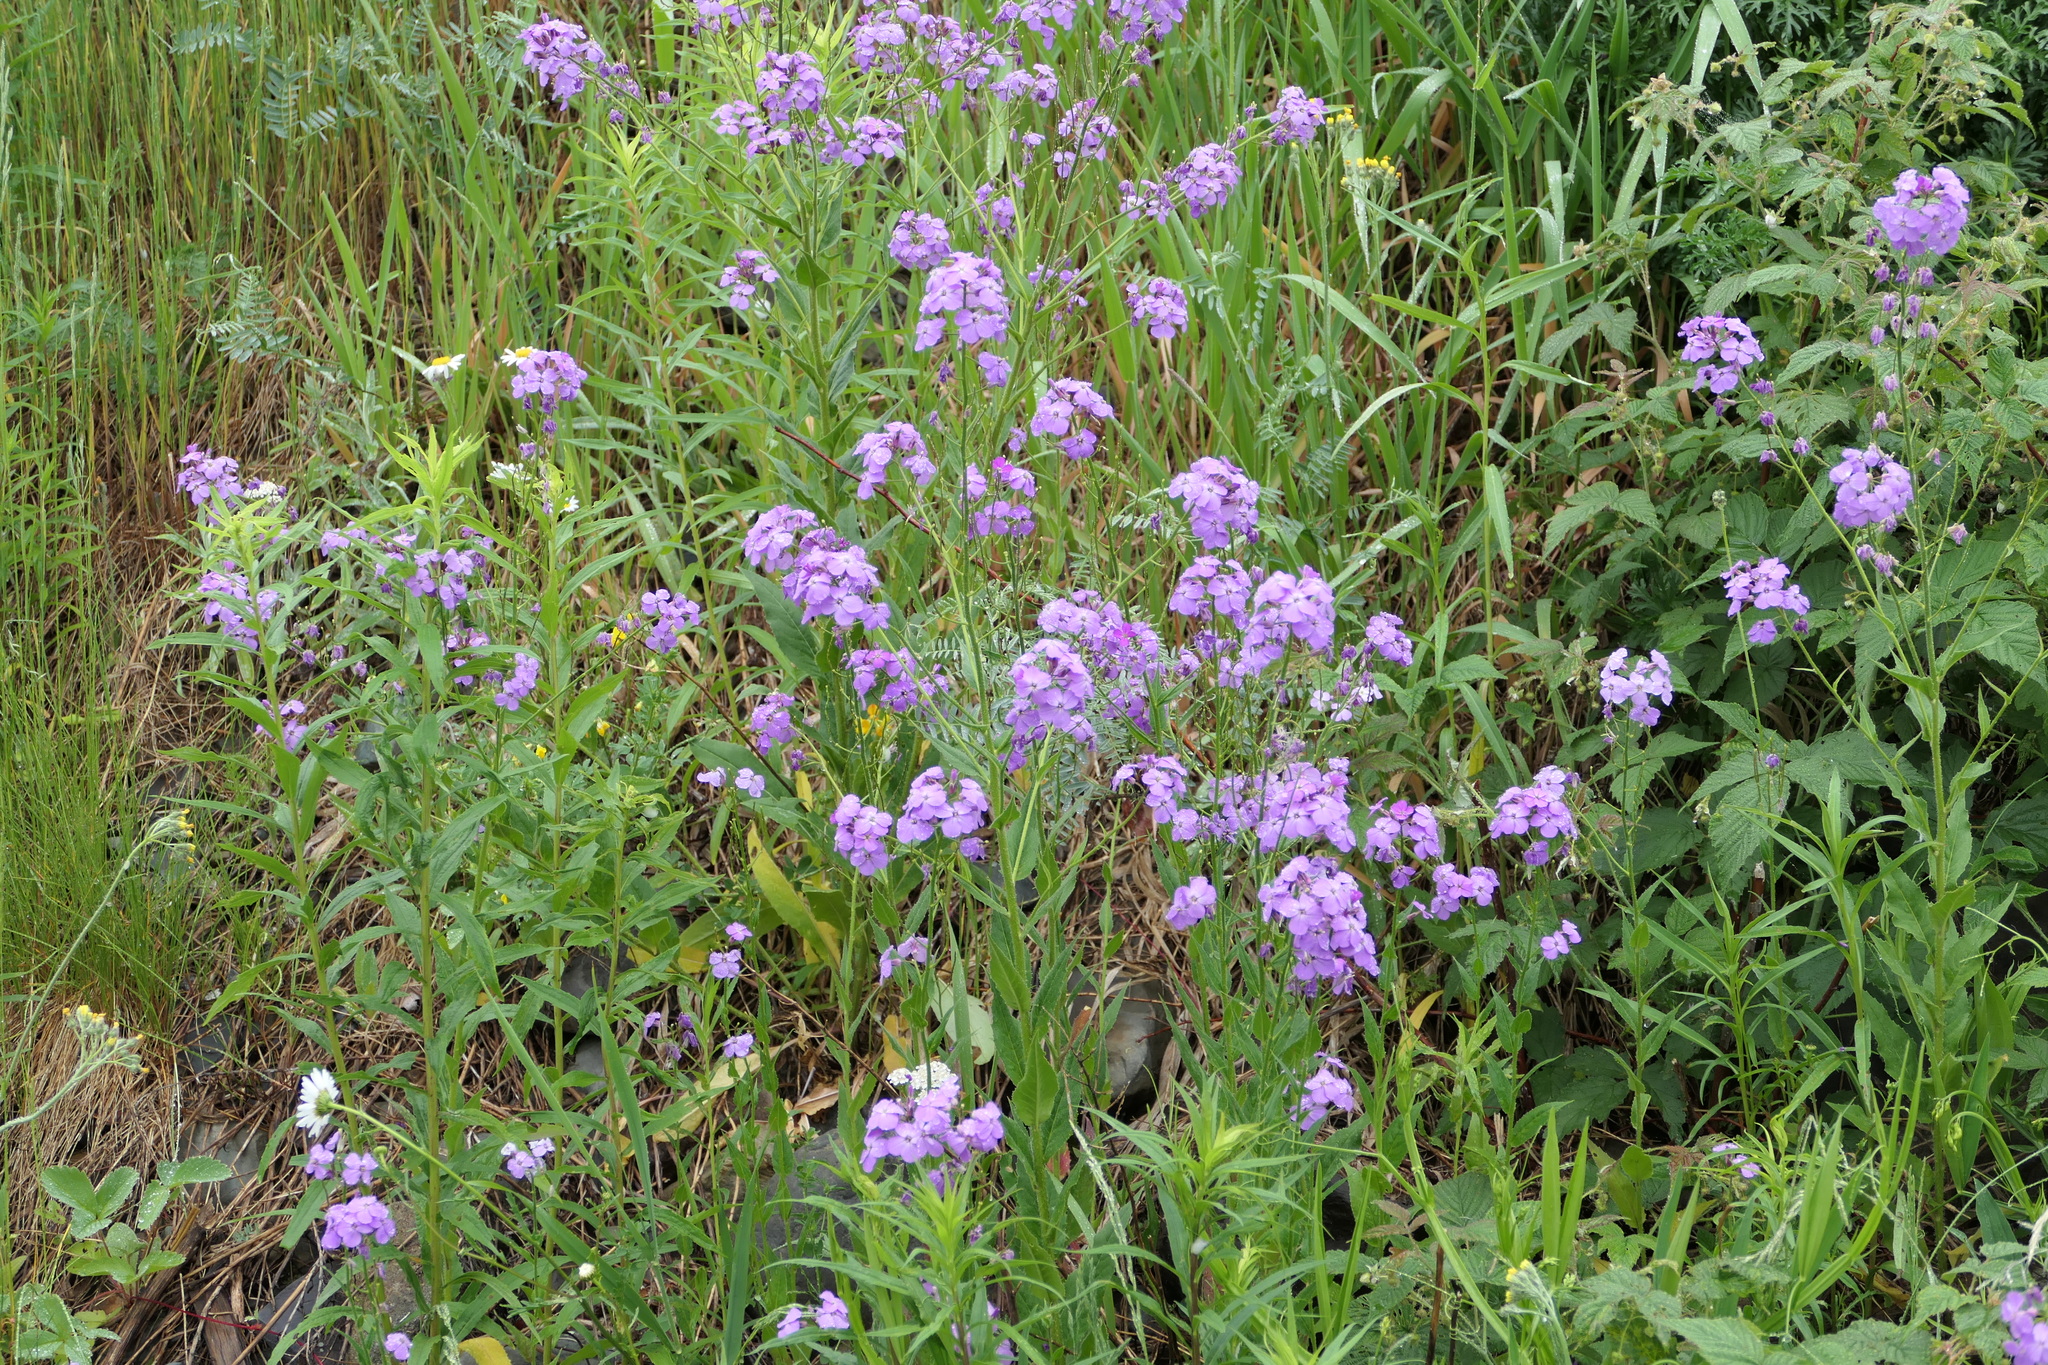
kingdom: Plantae
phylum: Tracheophyta
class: Magnoliopsida
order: Brassicales
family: Brassicaceae
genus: Hesperis
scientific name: Hesperis matronalis
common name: Dame's-violet
